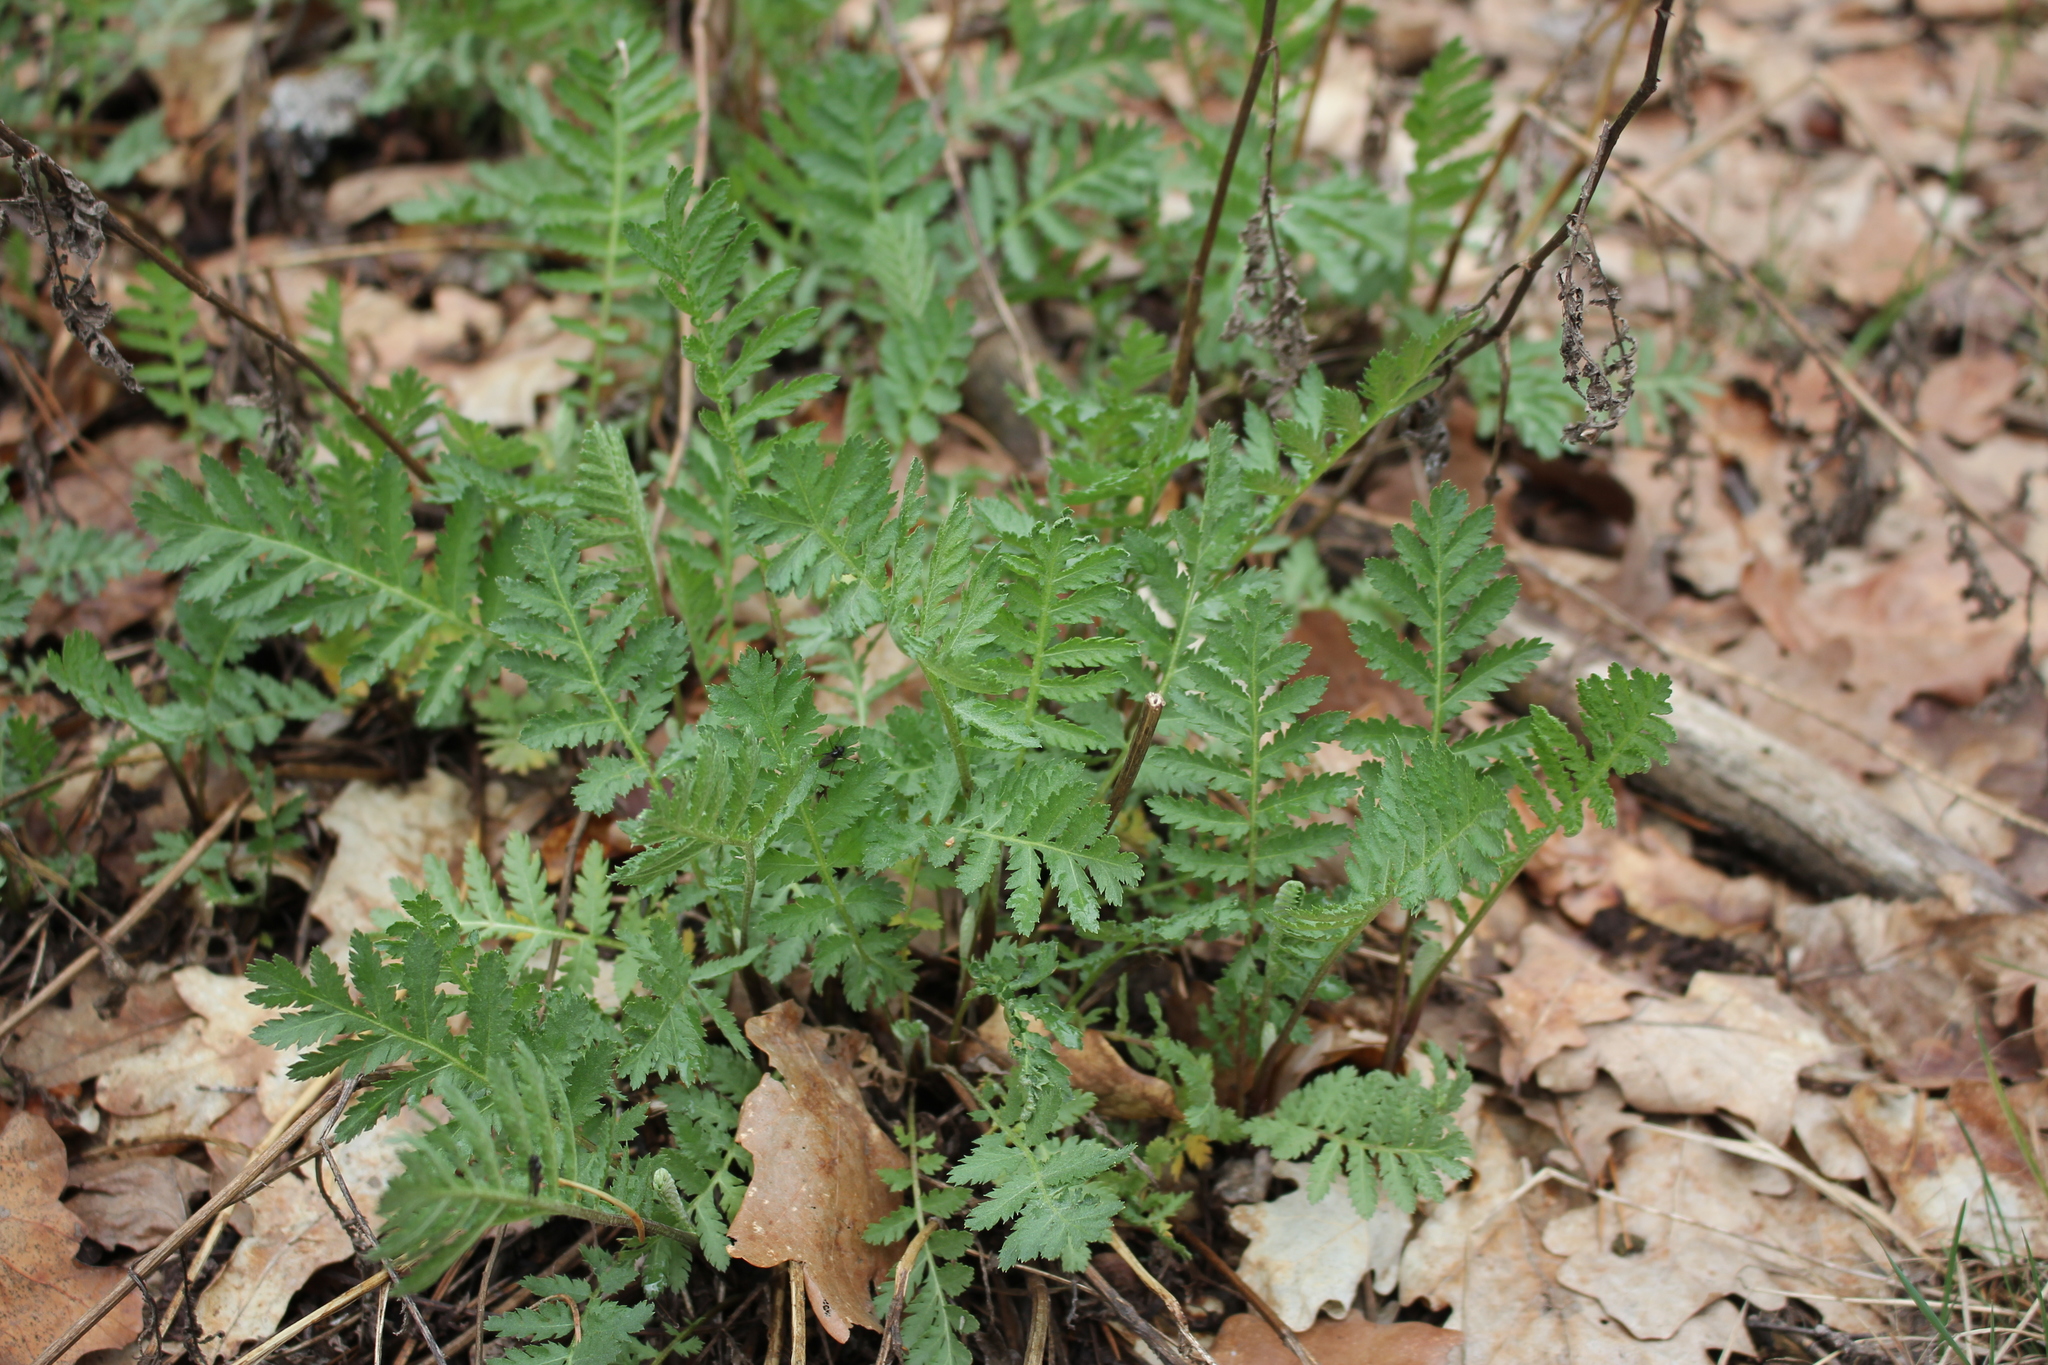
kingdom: Plantae
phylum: Tracheophyta
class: Magnoliopsida
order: Asterales
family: Asteraceae
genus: Tanacetum
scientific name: Tanacetum vulgare
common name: Common tansy
